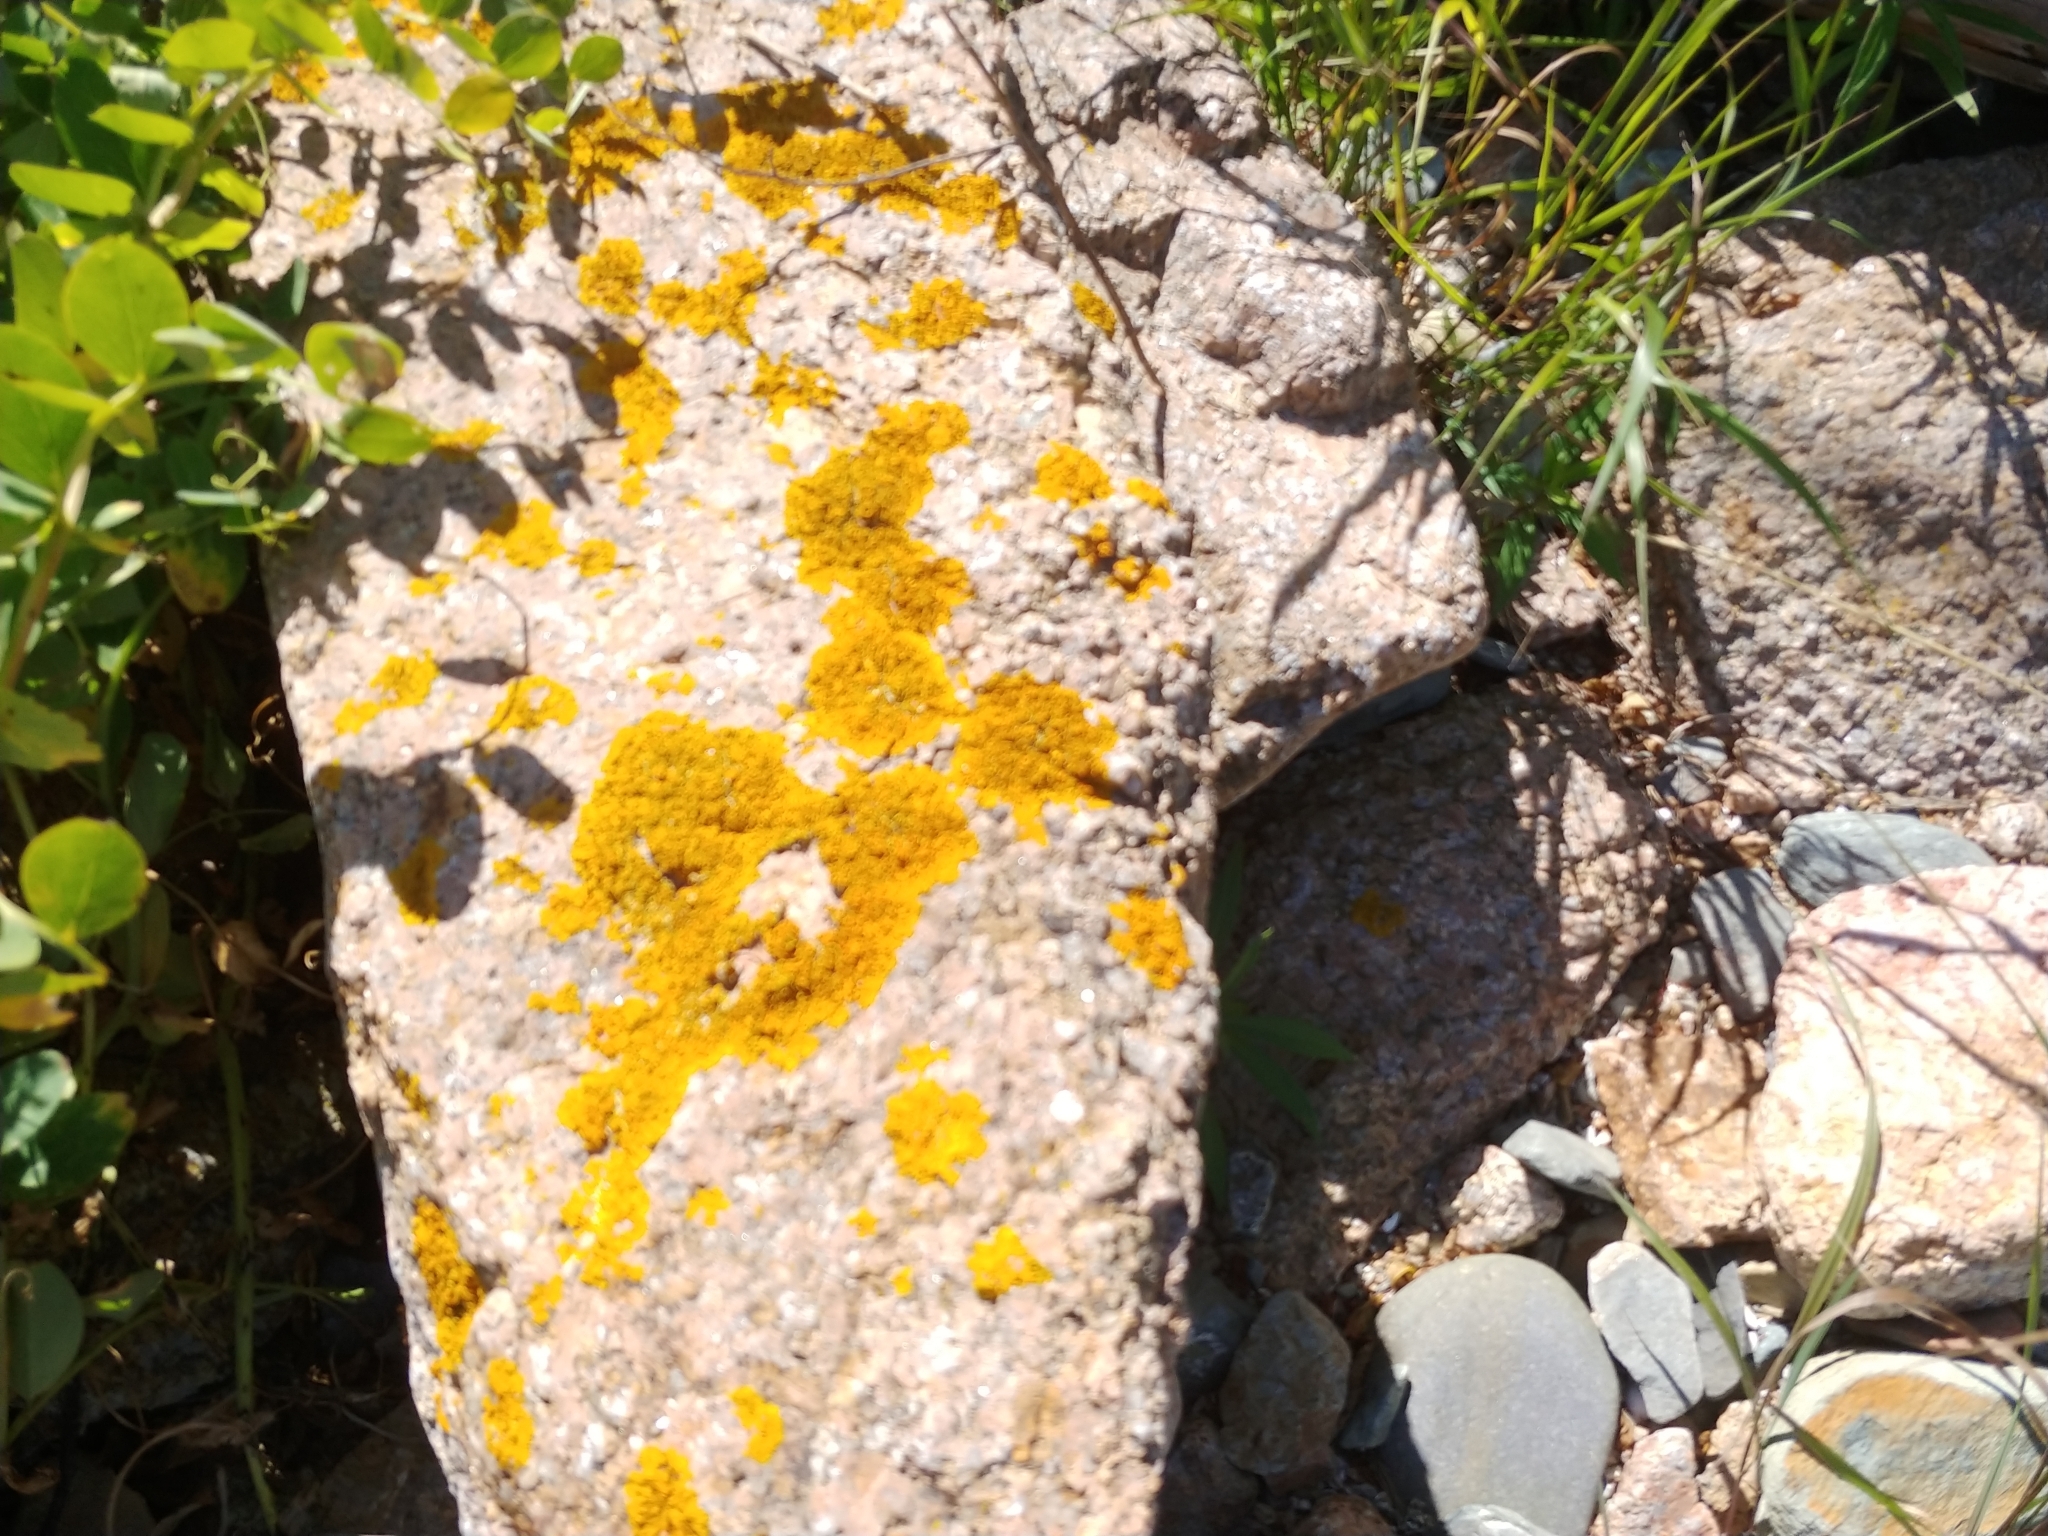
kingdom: Fungi
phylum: Ascomycota
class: Lecanoromycetes
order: Teloschistales
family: Teloschistaceae
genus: Xanthoria
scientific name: Xanthoria parietina
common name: Common orange lichen
